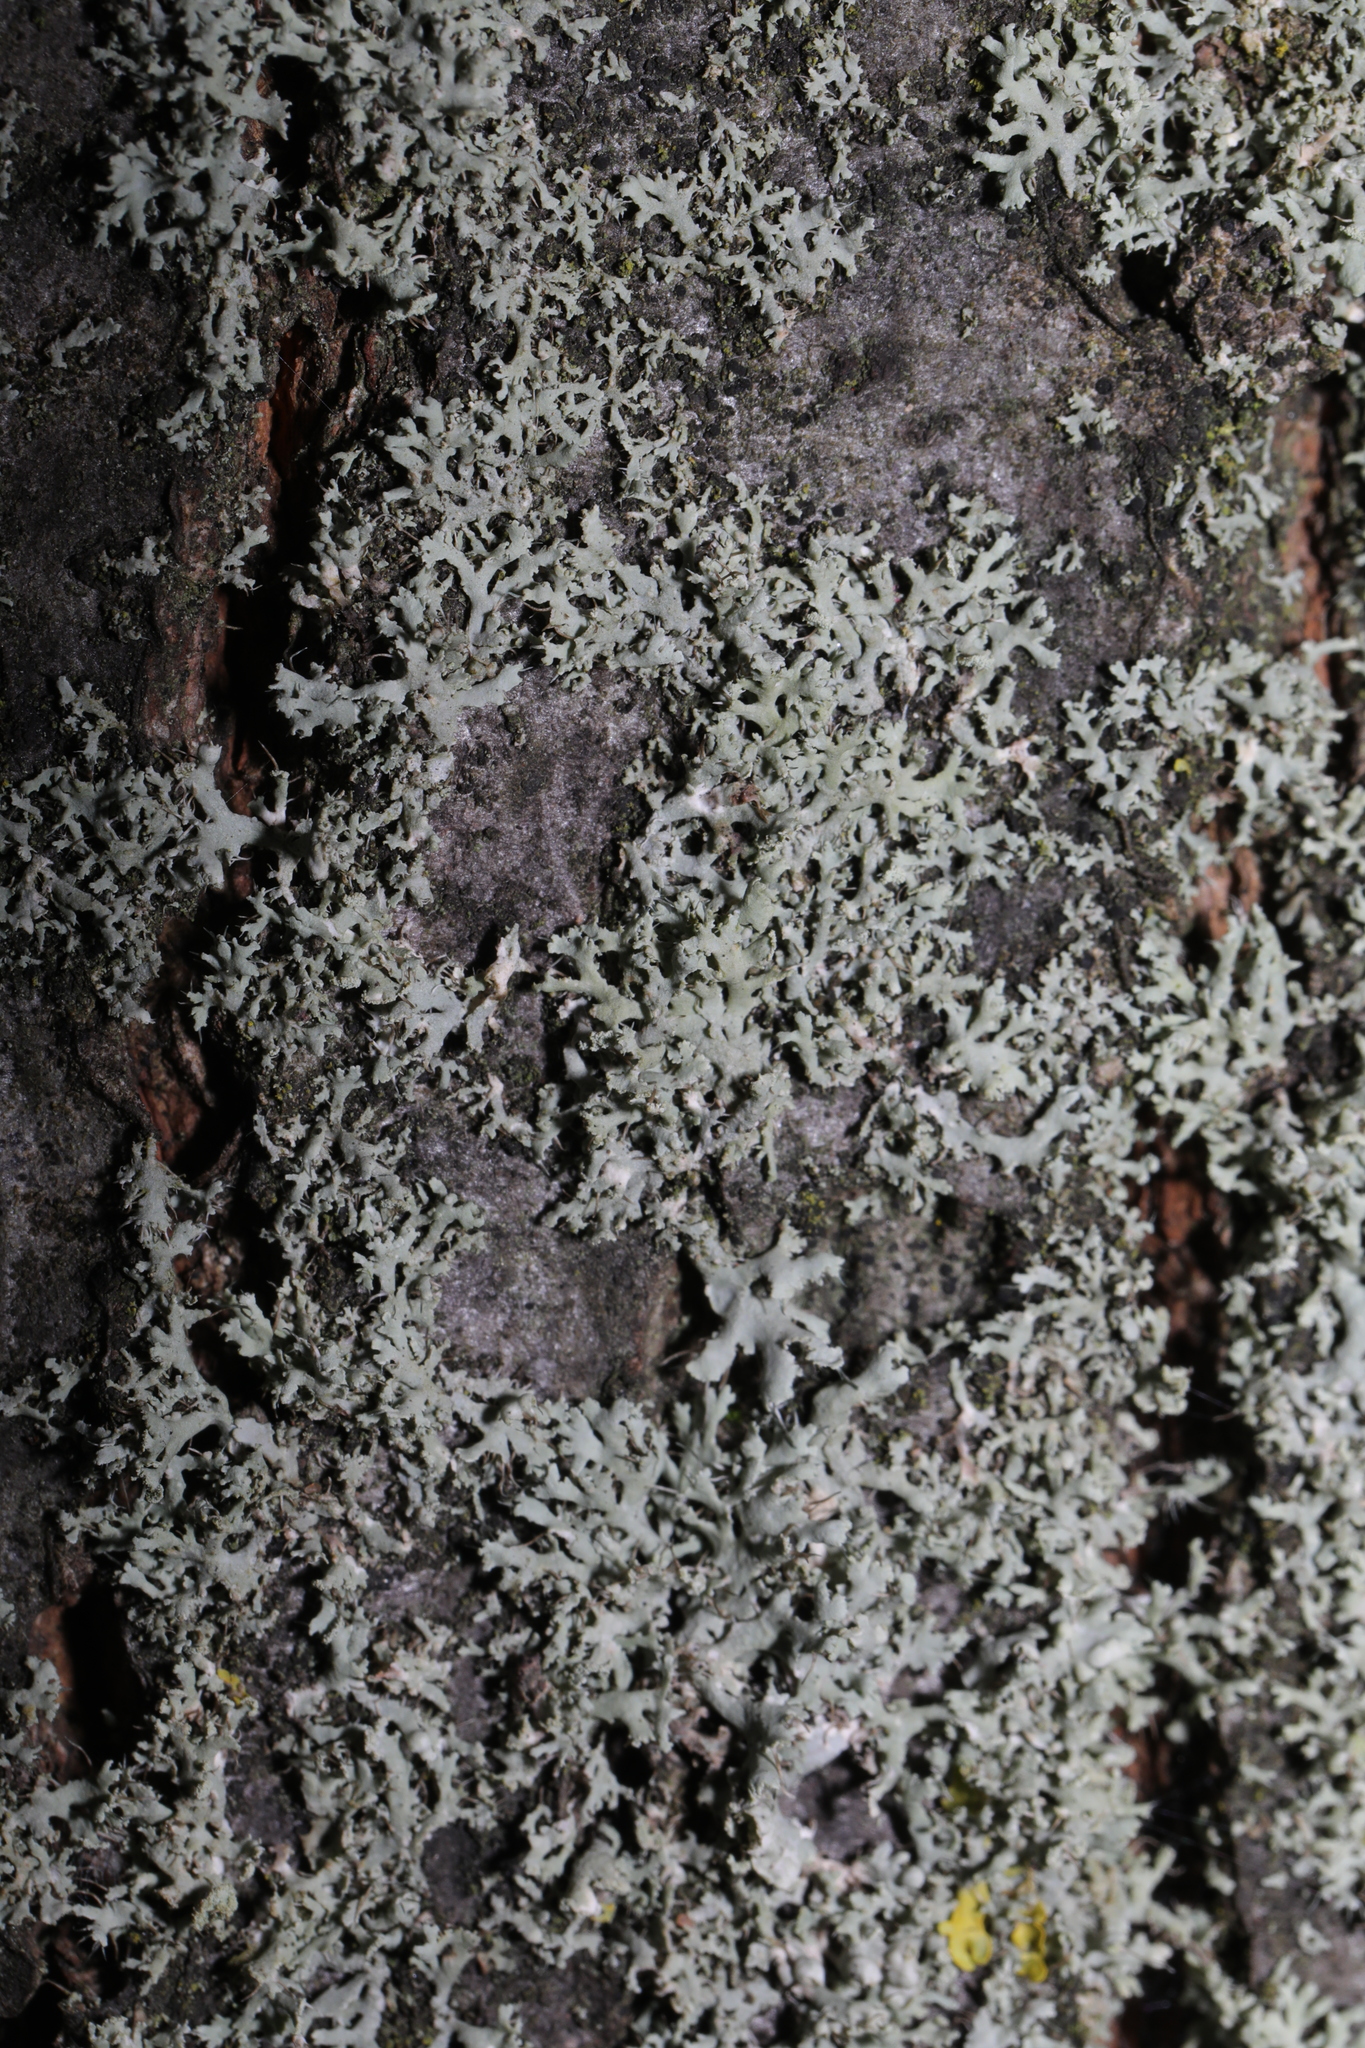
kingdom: Fungi
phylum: Ascomycota
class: Lecanoromycetes
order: Caliciales
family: Physciaceae
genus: Physcia
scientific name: Physcia tenella
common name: Fringed rosette lichen
